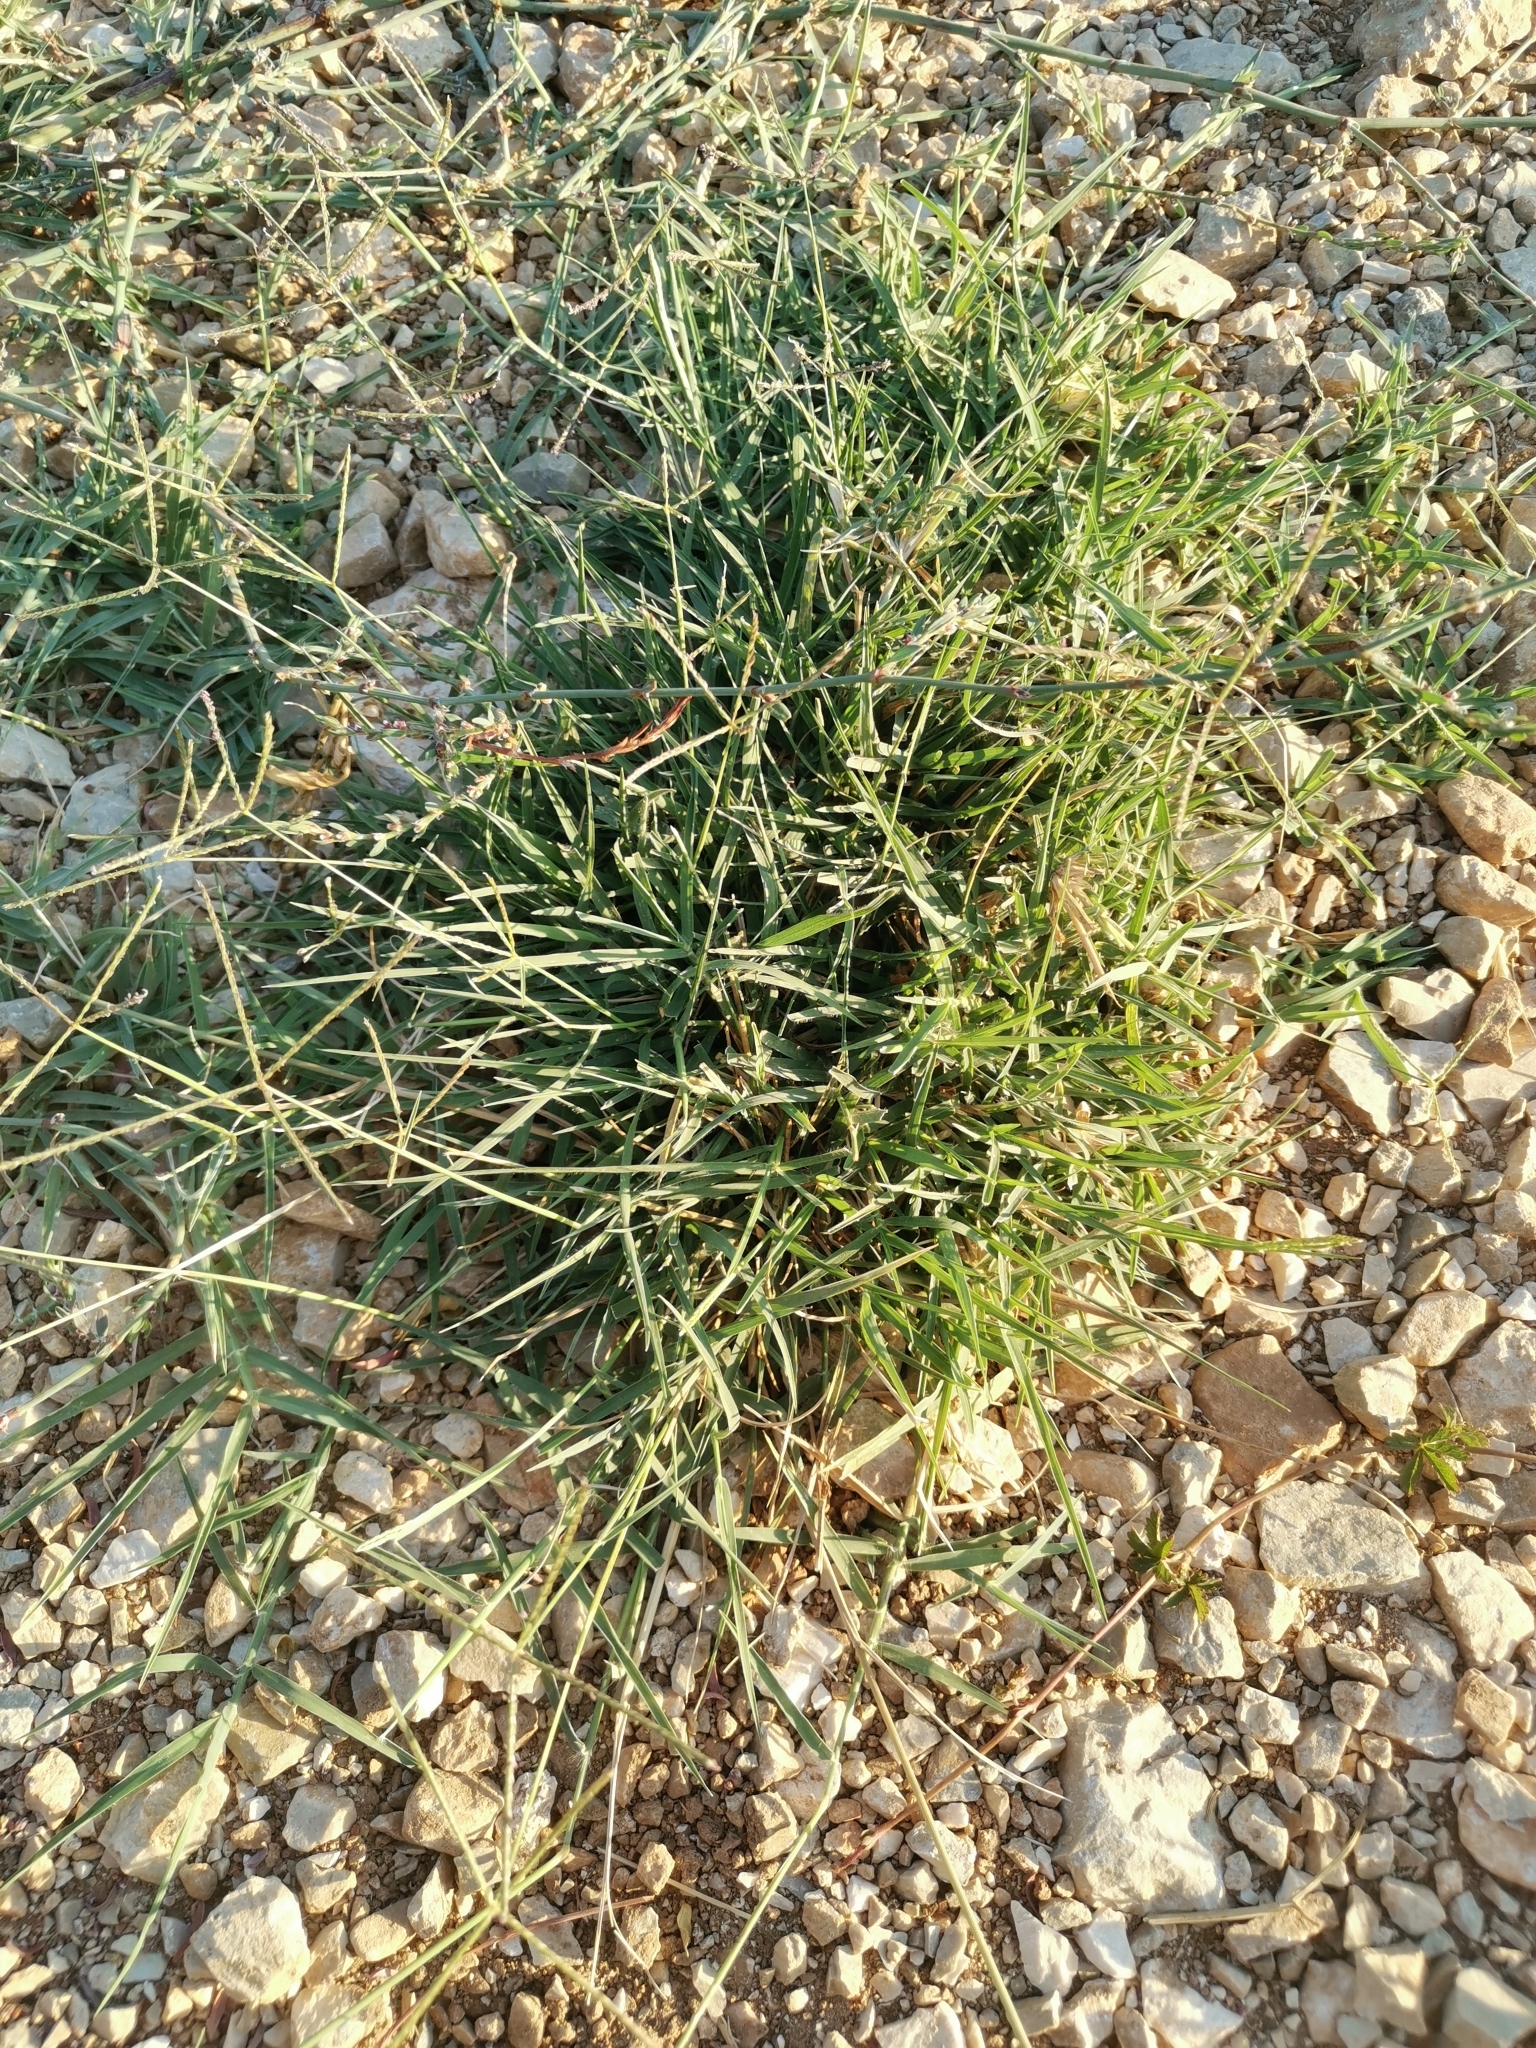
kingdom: Plantae
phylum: Tracheophyta
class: Liliopsida
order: Poales
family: Poaceae
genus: Cynodon
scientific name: Cynodon dactylon
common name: Bermuda grass
